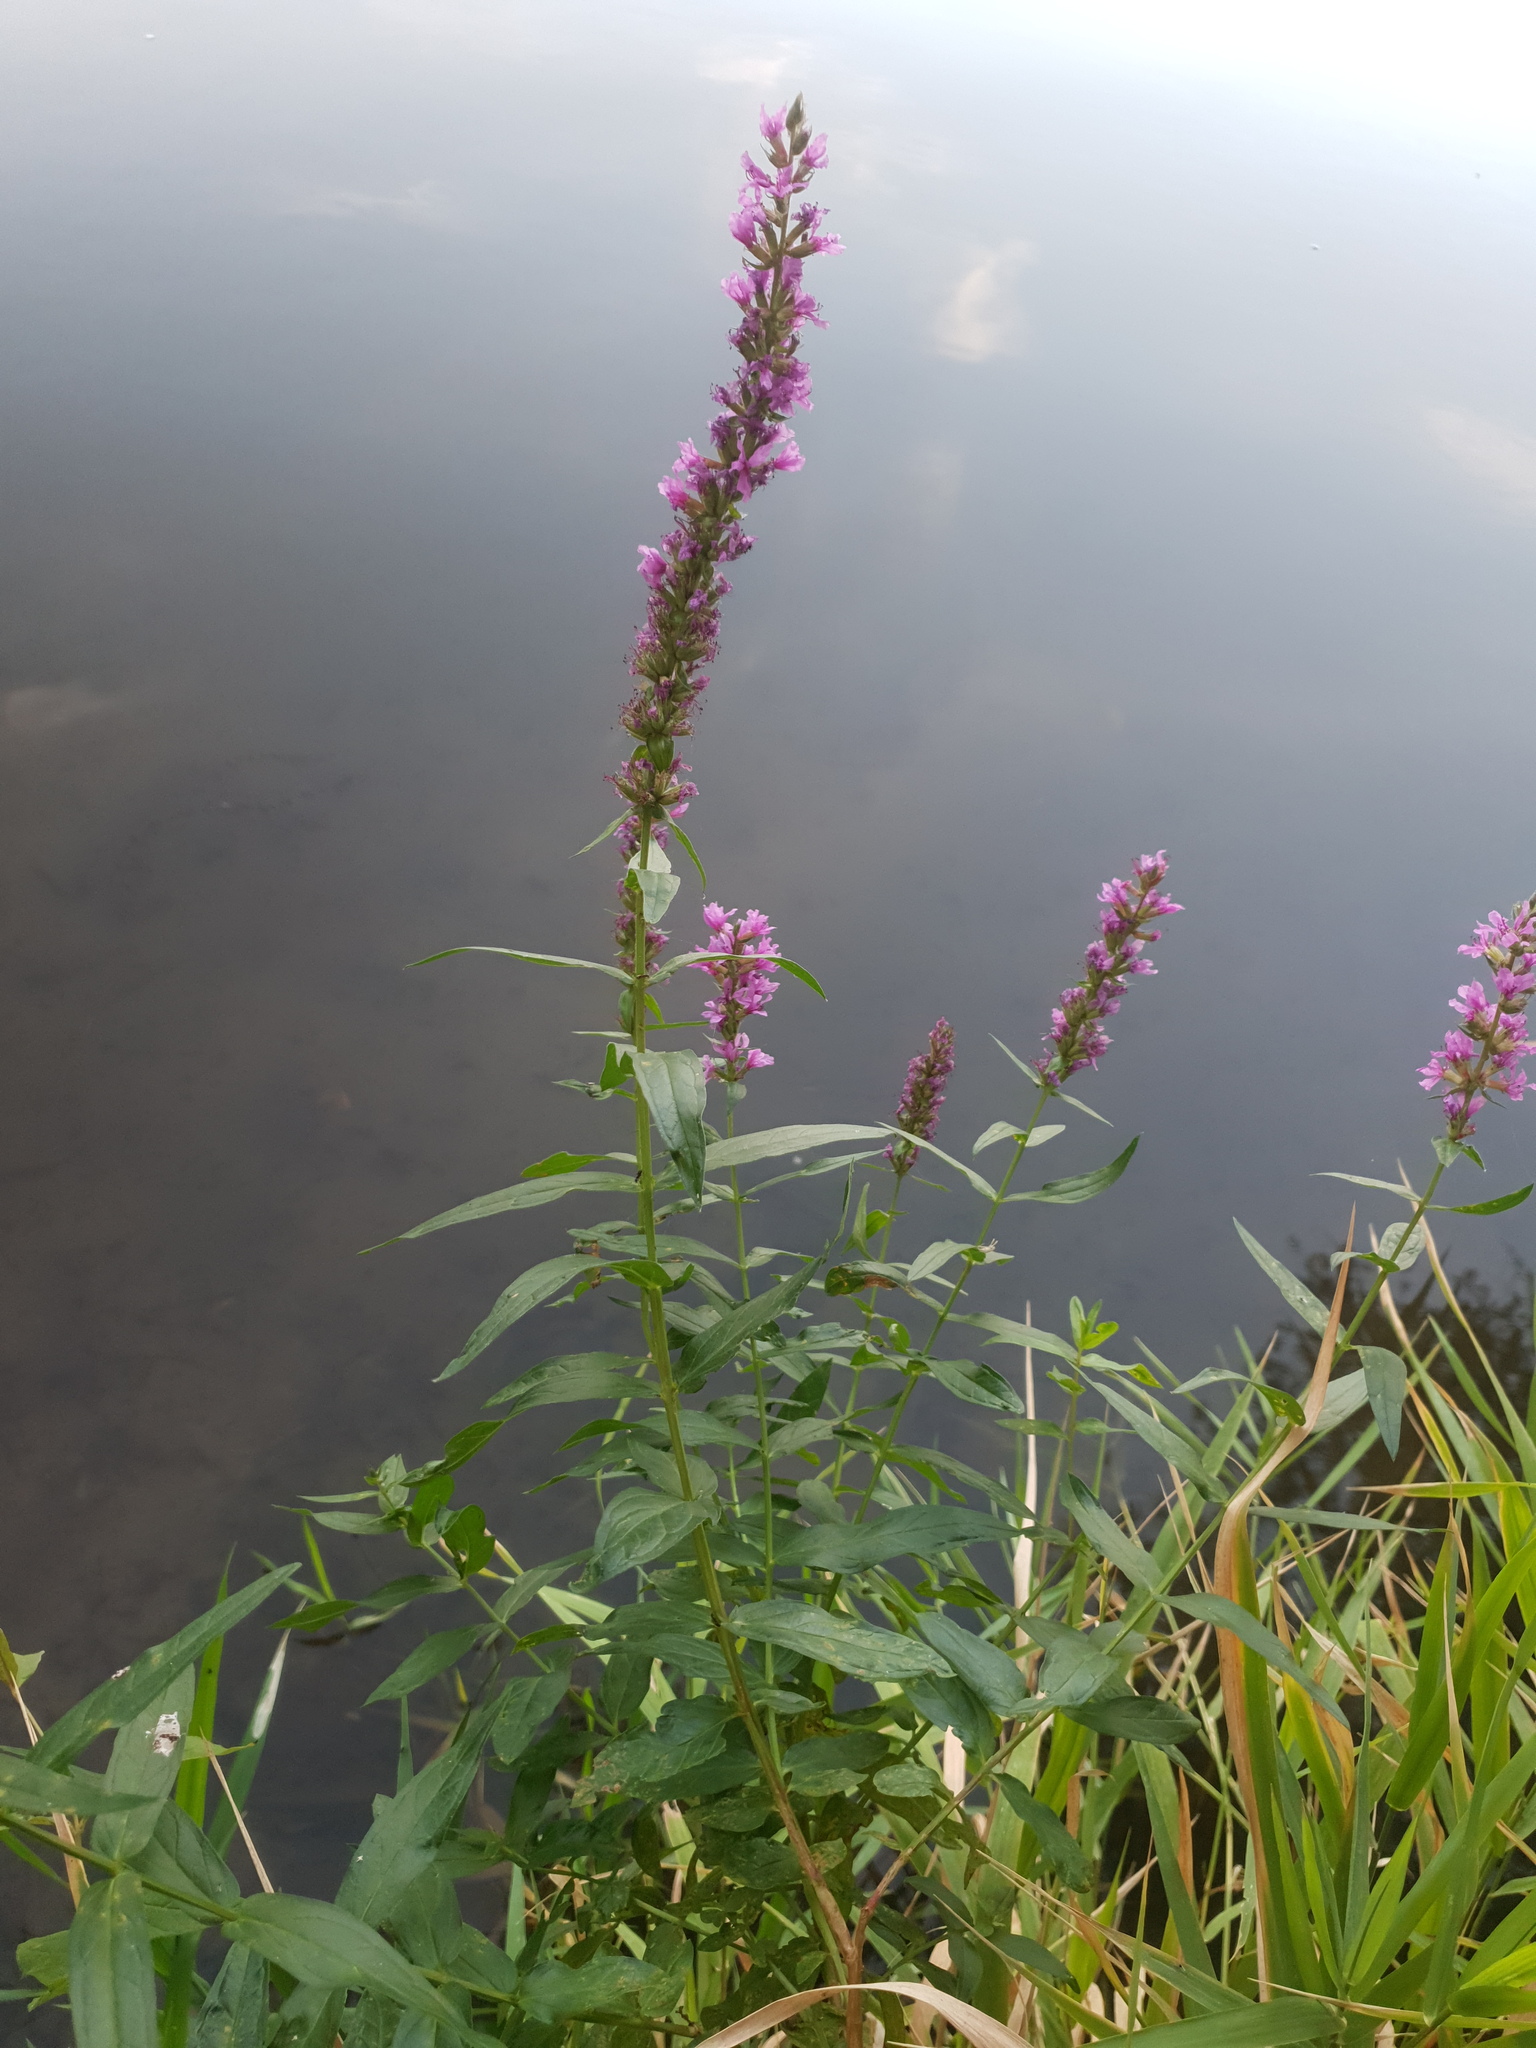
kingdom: Plantae
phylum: Tracheophyta
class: Magnoliopsida
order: Myrtales
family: Lythraceae
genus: Lythrum
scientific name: Lythrum salicaria
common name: Purple loosestrife
